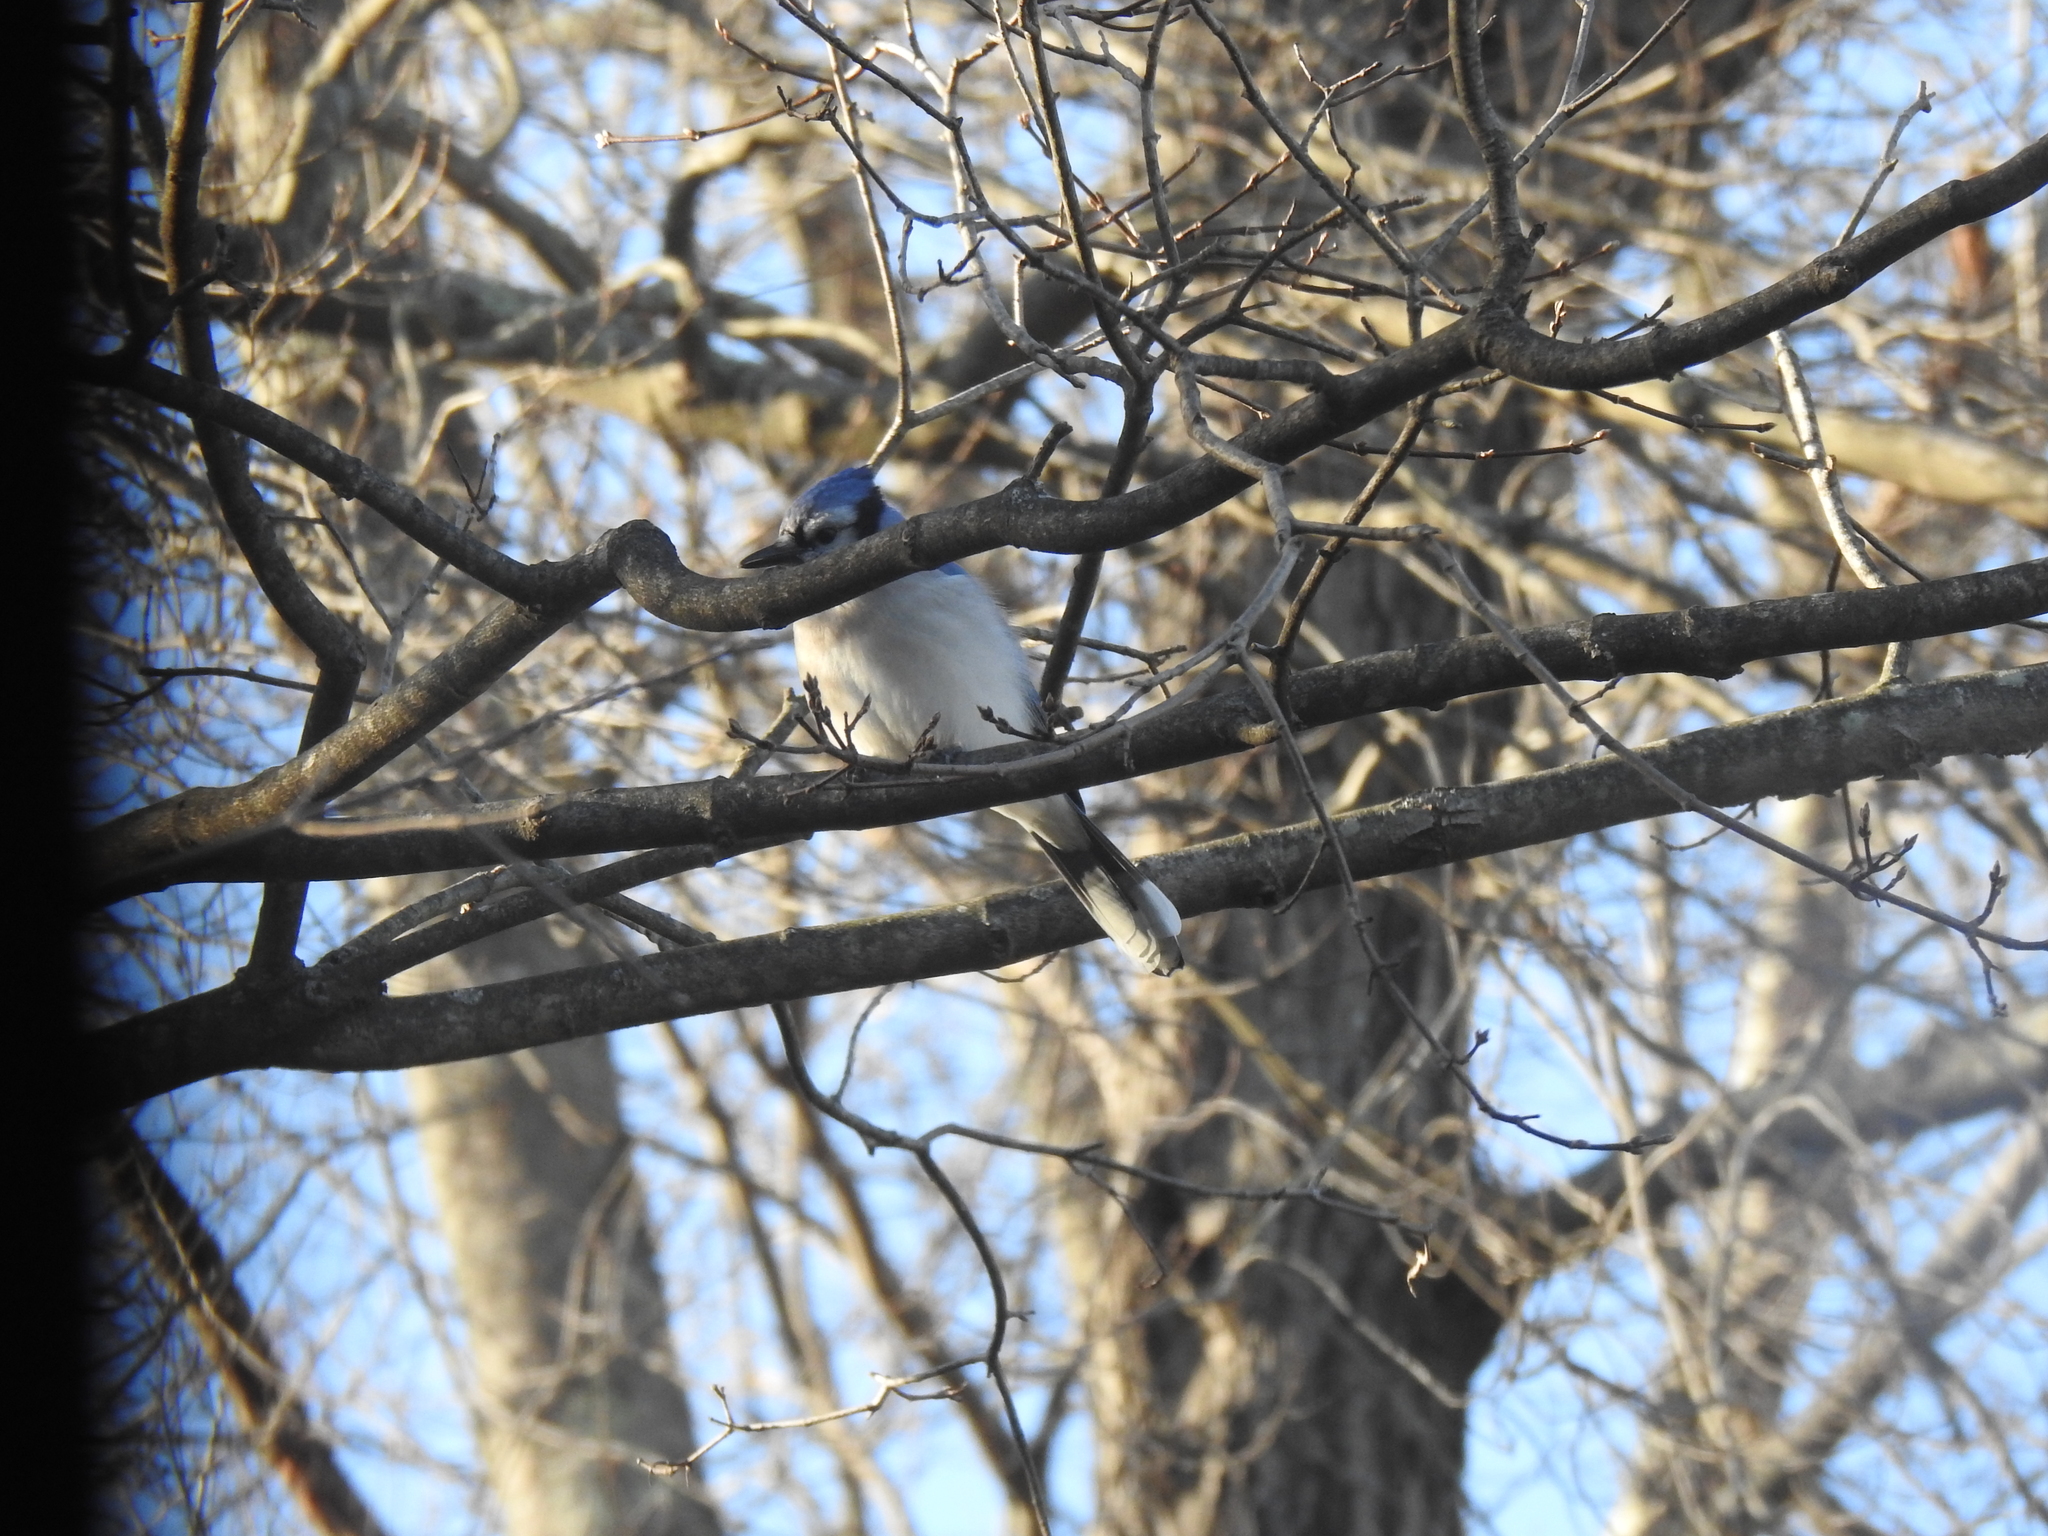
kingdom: Animalia
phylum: Chordata
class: Aves
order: Passeriformes
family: Corvidae
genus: Cyanocitta
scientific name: Cyanocitta cristata
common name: Blue jay
